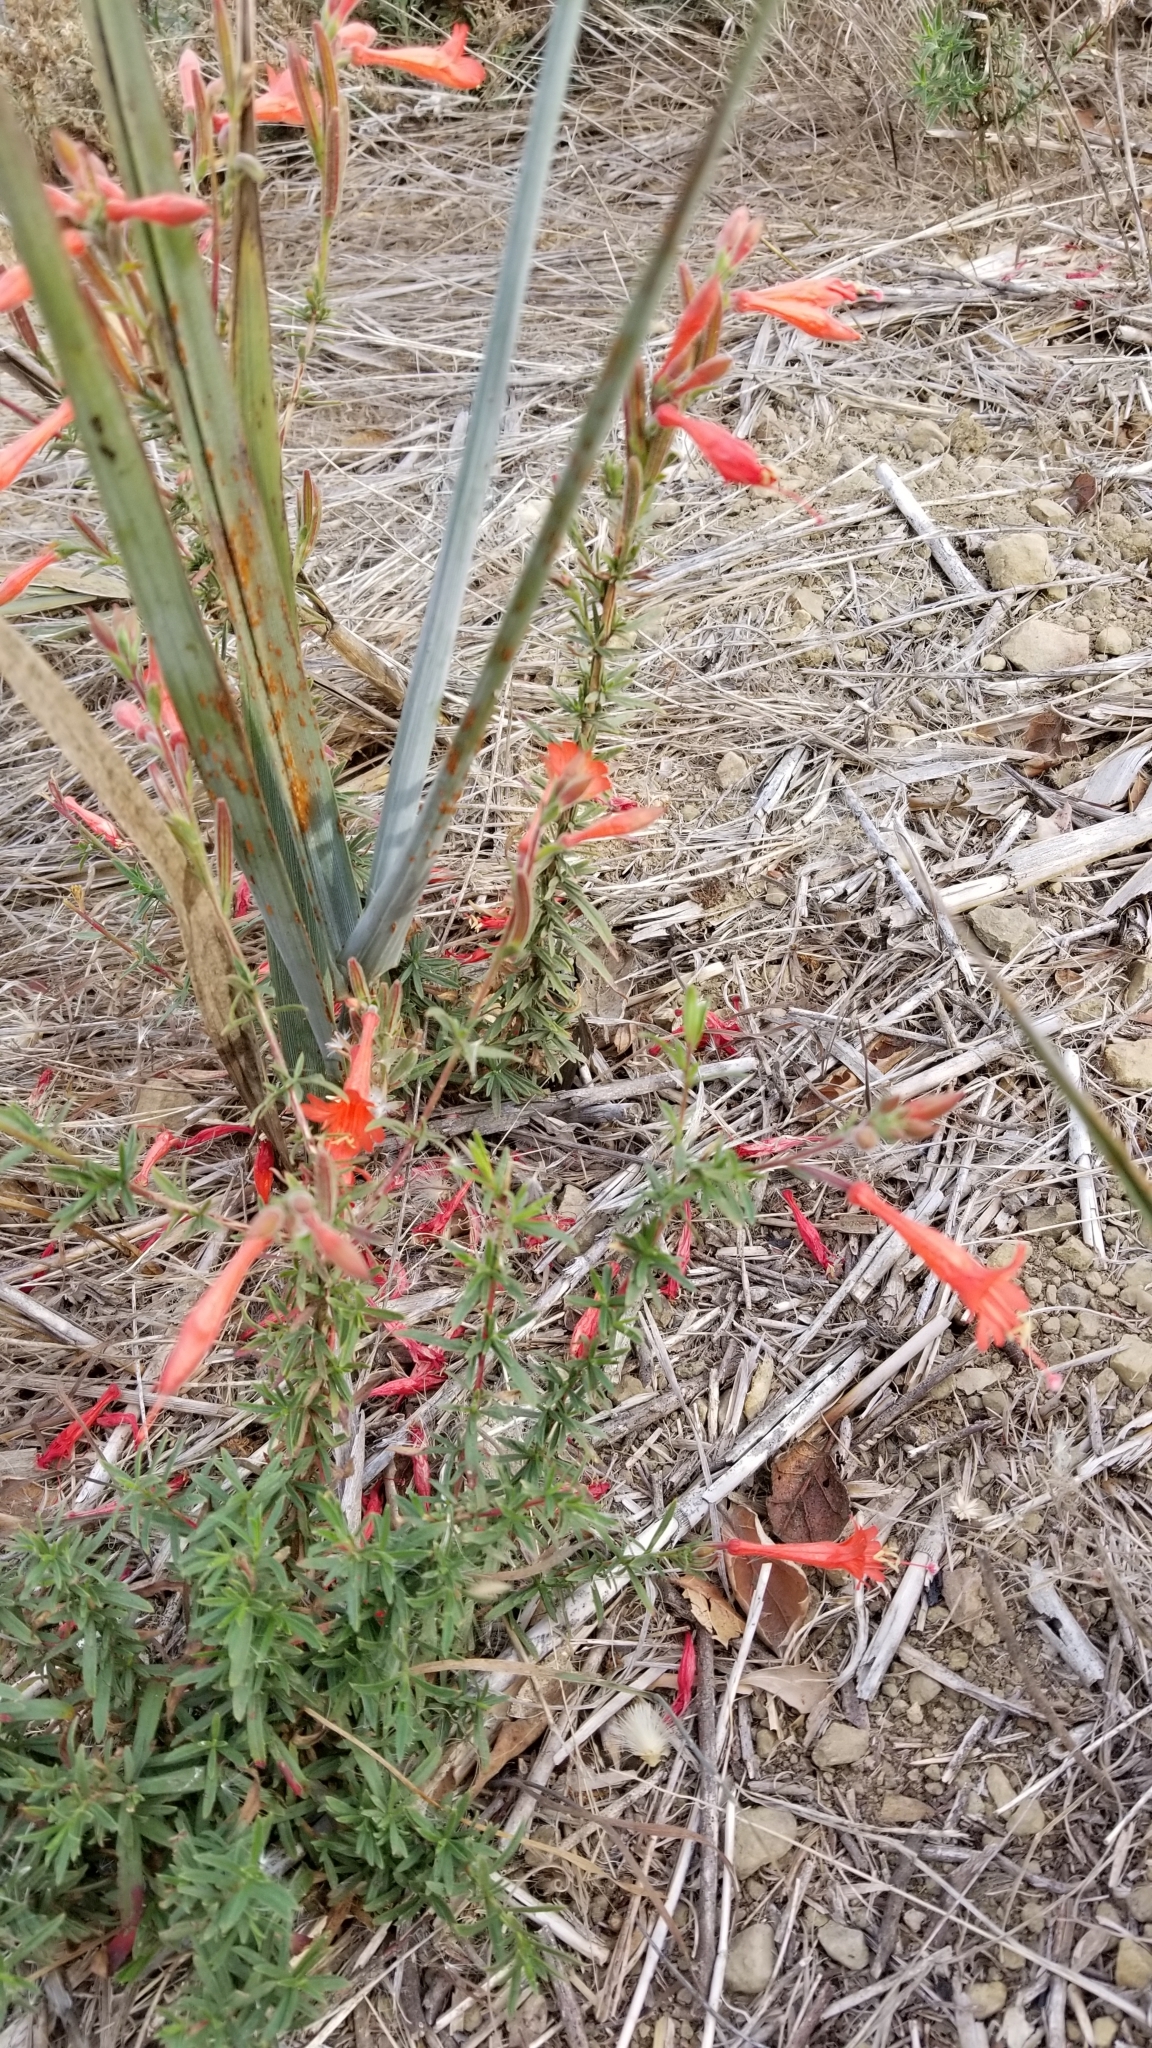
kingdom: Plantae
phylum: Tracheophyta
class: Magnoliopsida
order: Myrtales
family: Onagraceae
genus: Epilobium
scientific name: Epilobium canum
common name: California-fuchsia
